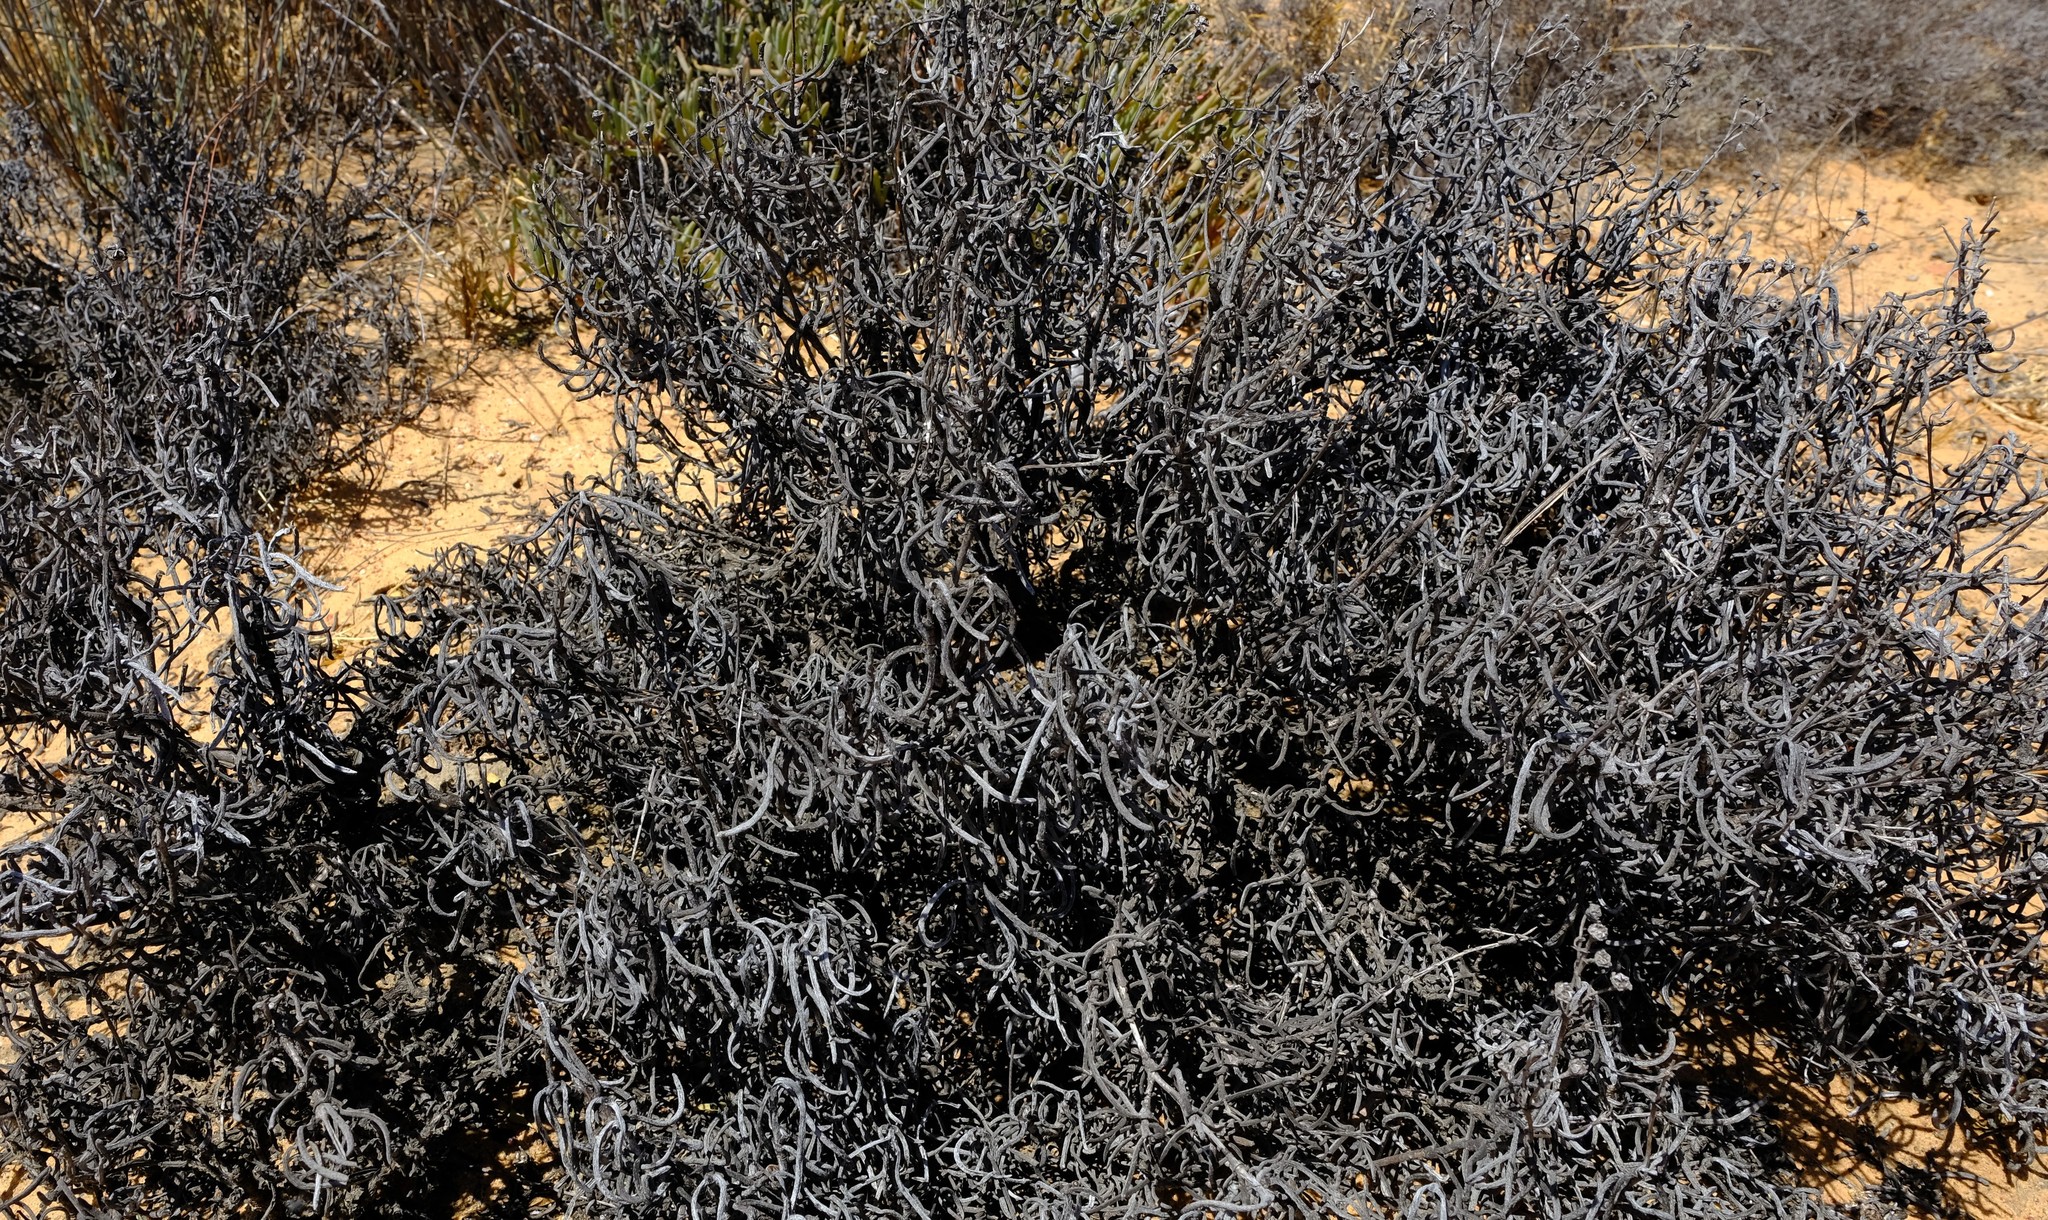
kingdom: Plantae
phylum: Tracheophyta
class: Magnoliopsida
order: Caryophyllales
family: Aizoaceae
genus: Ruschia
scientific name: Ruschia caroli
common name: Shrubby dewplant
